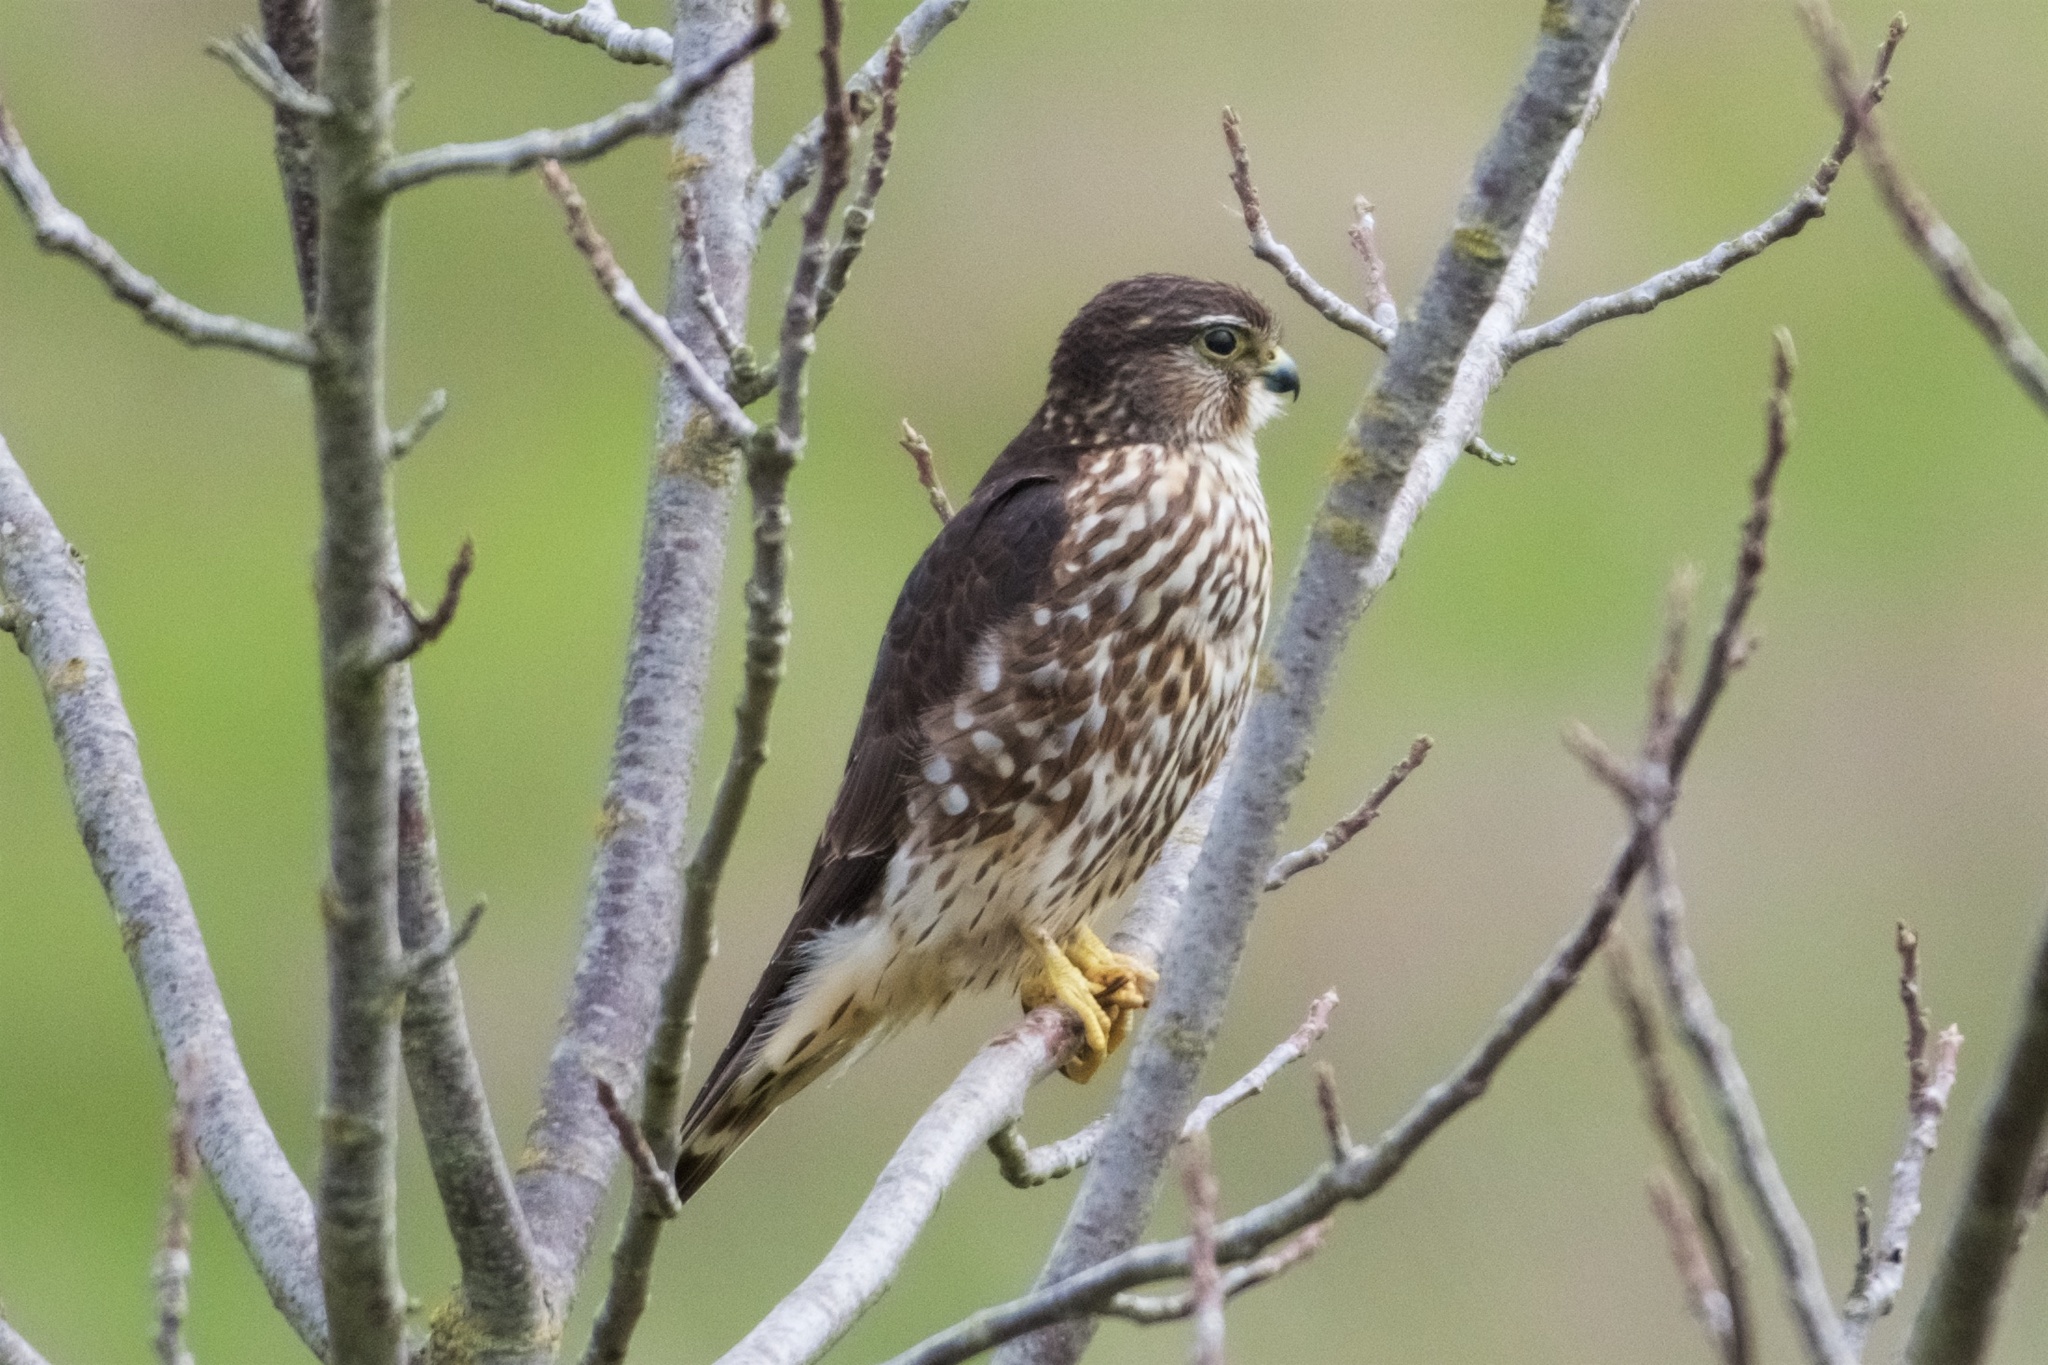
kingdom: Animalia
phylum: Chordata
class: Aves
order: Falconiformes
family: Falconidae
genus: Falco
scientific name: Falco columbarius
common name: Merlin
